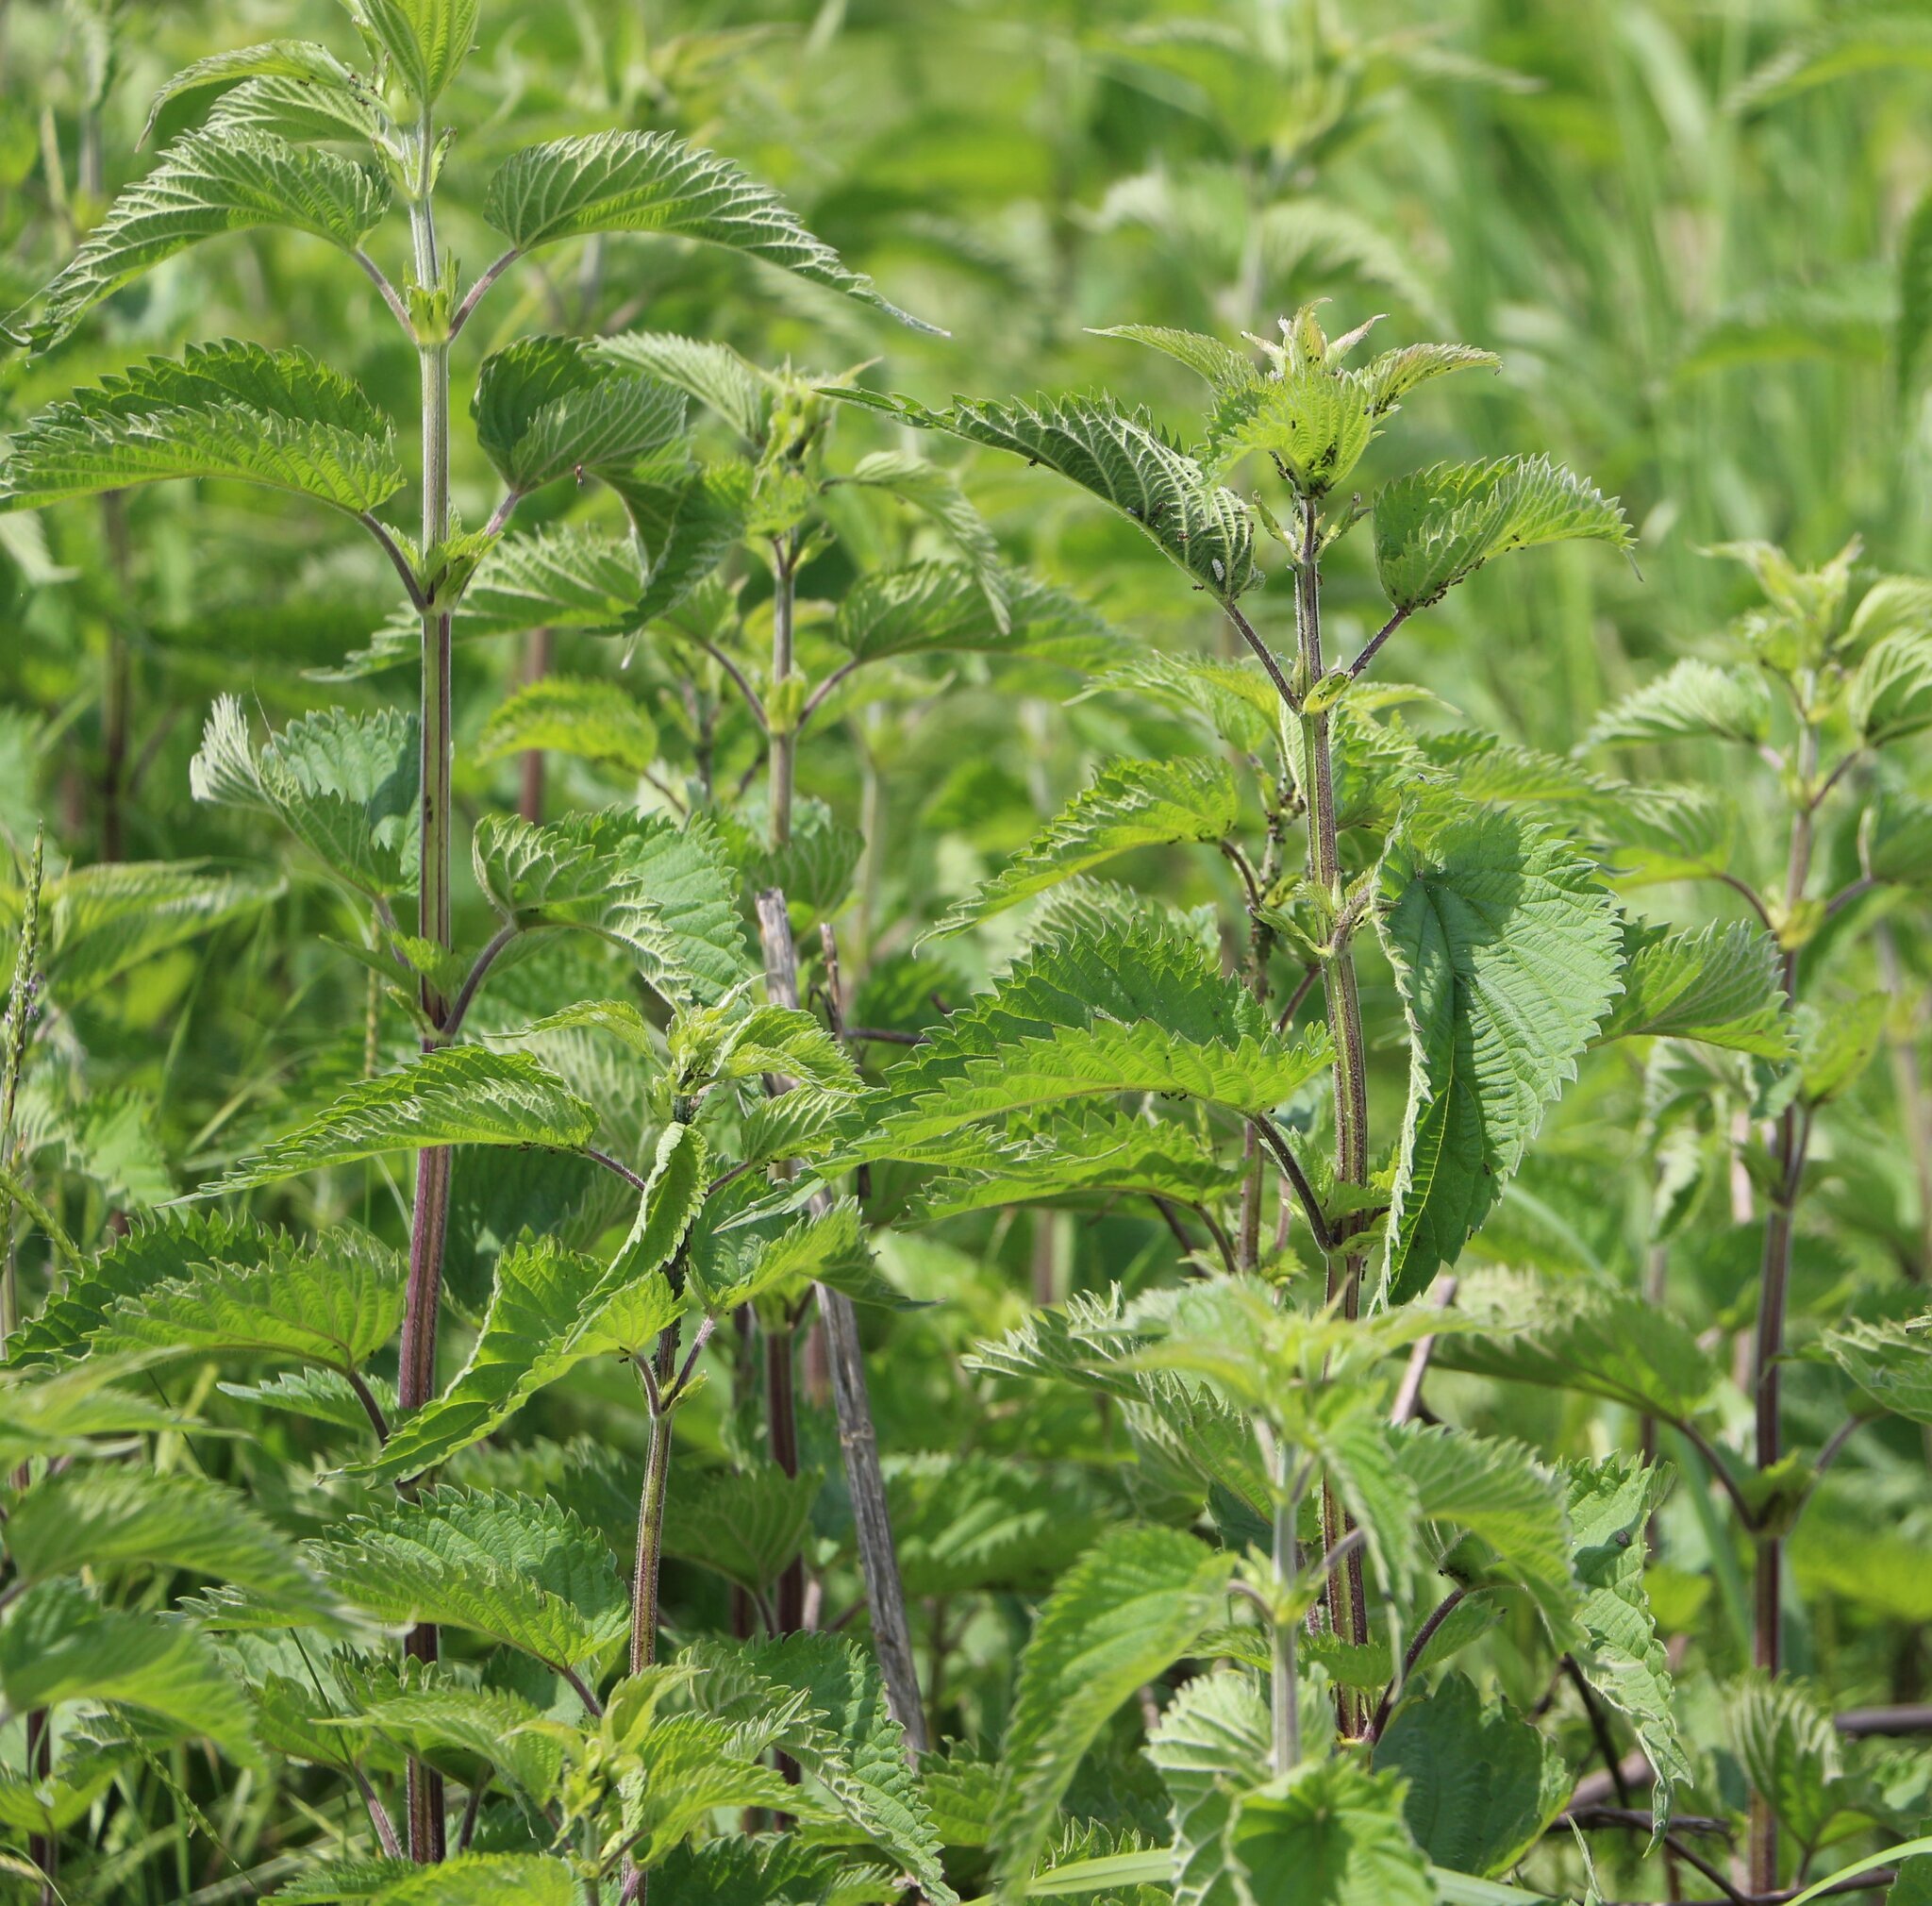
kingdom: Plantae
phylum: Tracheophyta
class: Magnoliopsida
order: Rosales
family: Urticaceae
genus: Urtica
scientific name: Urtica dioica
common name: Common nettle
